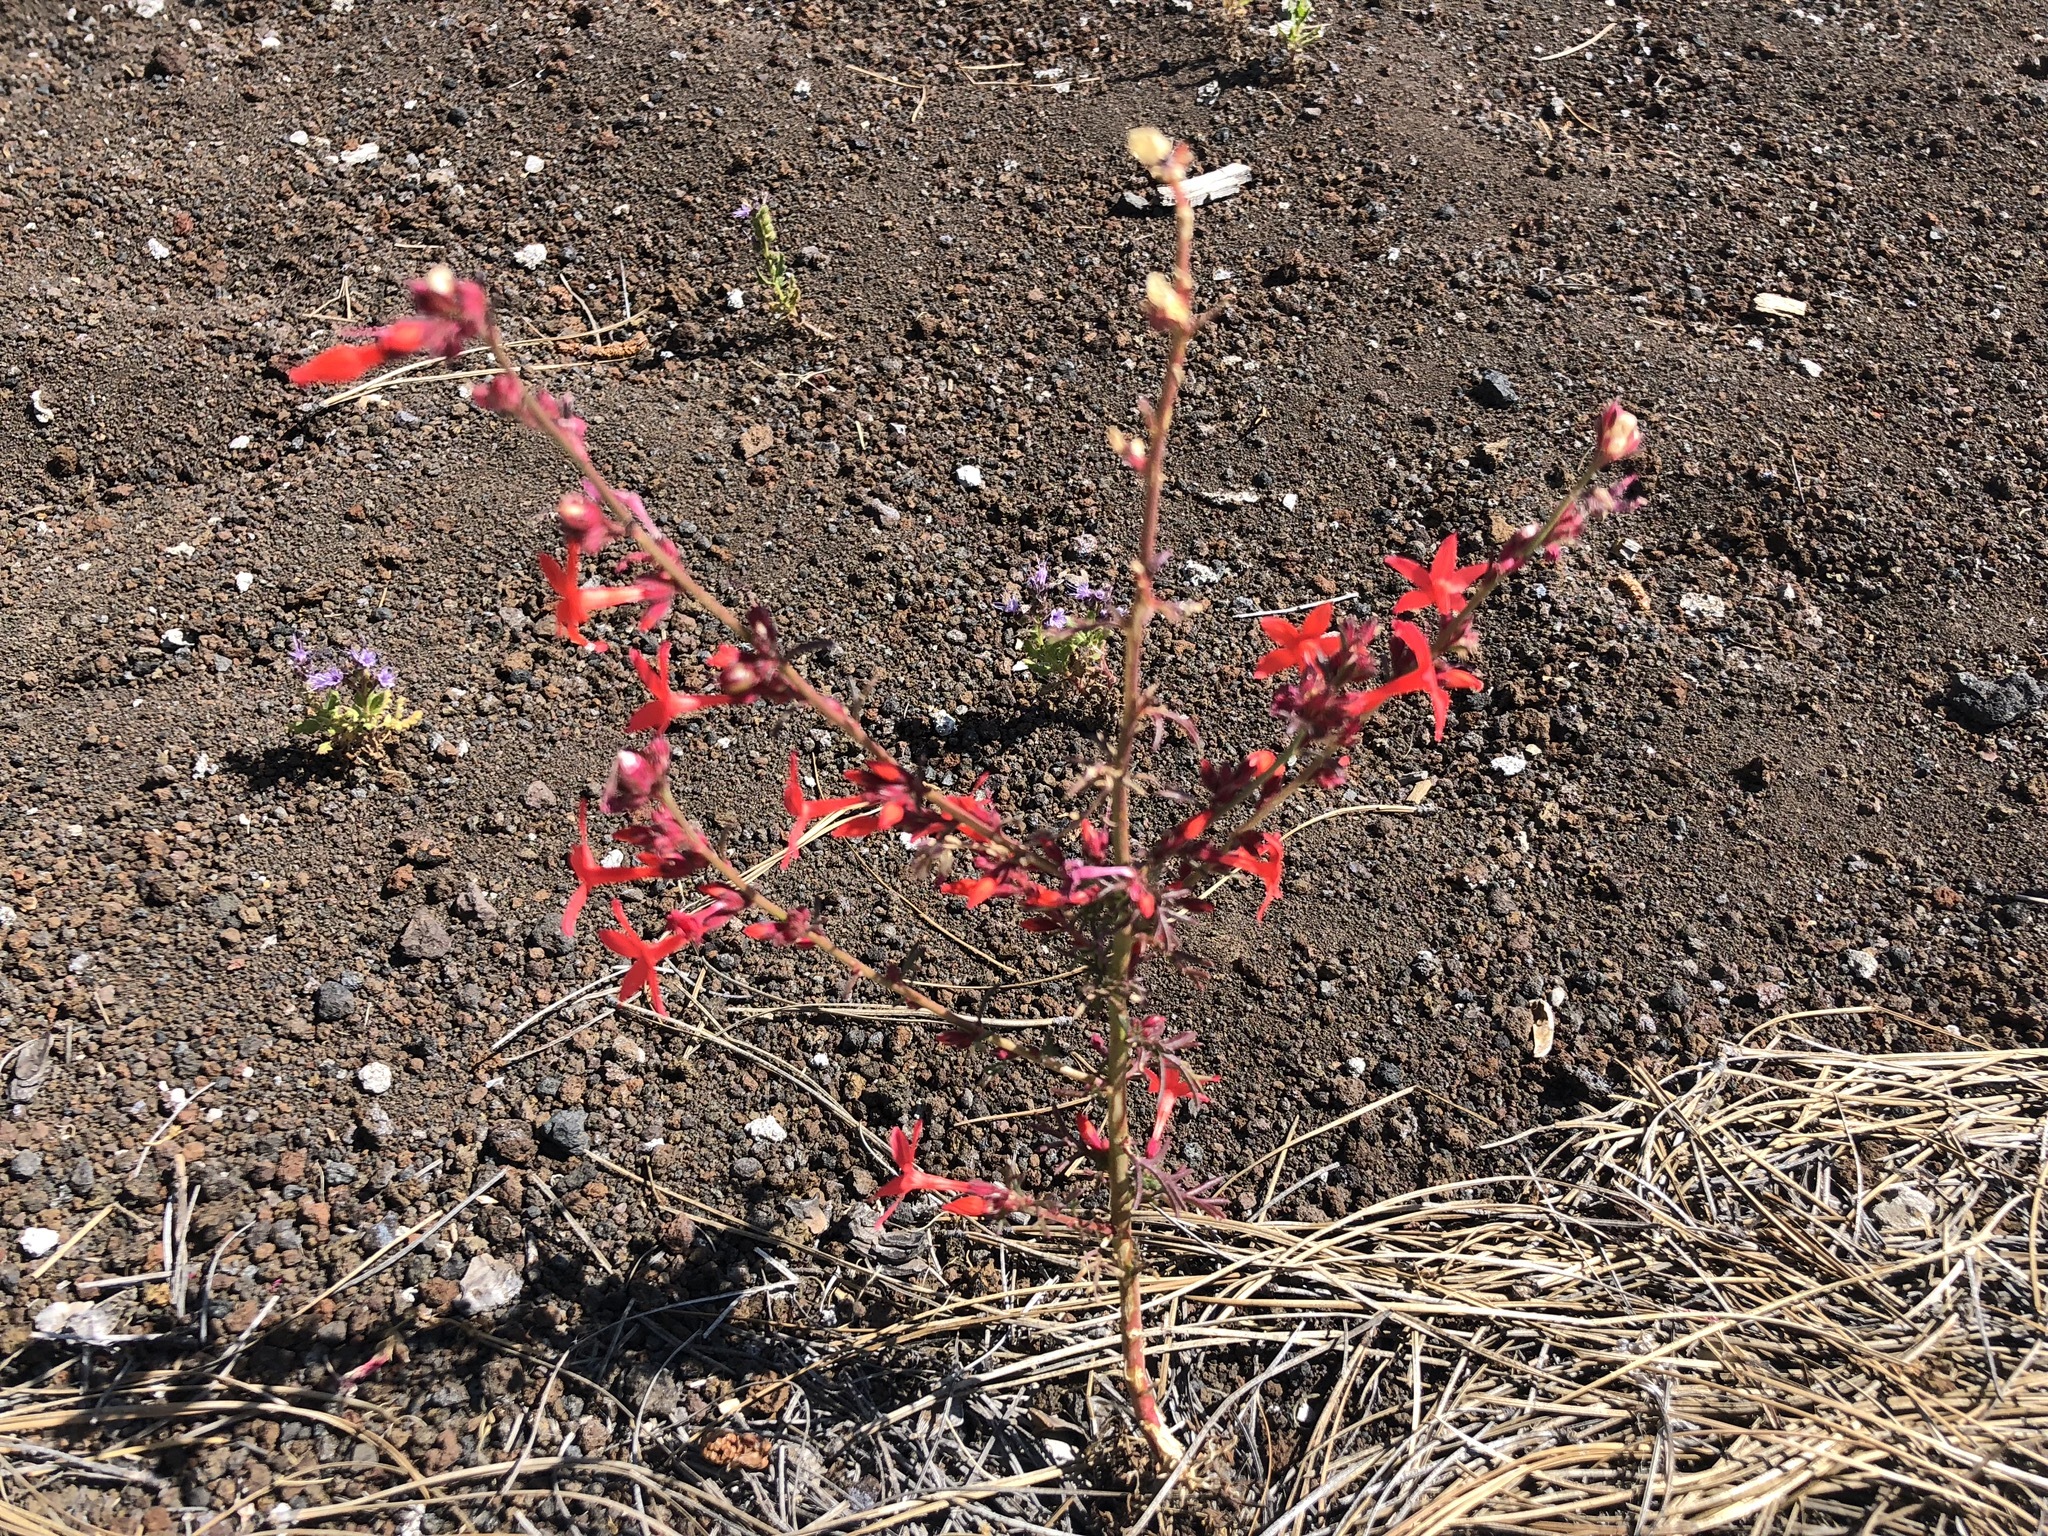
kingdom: Plantae
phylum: Tracheophyta
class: Magnoliopsida
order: Ericales
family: Polemoniaceae
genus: Ipomopsis
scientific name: Ipomopsis arizonica
